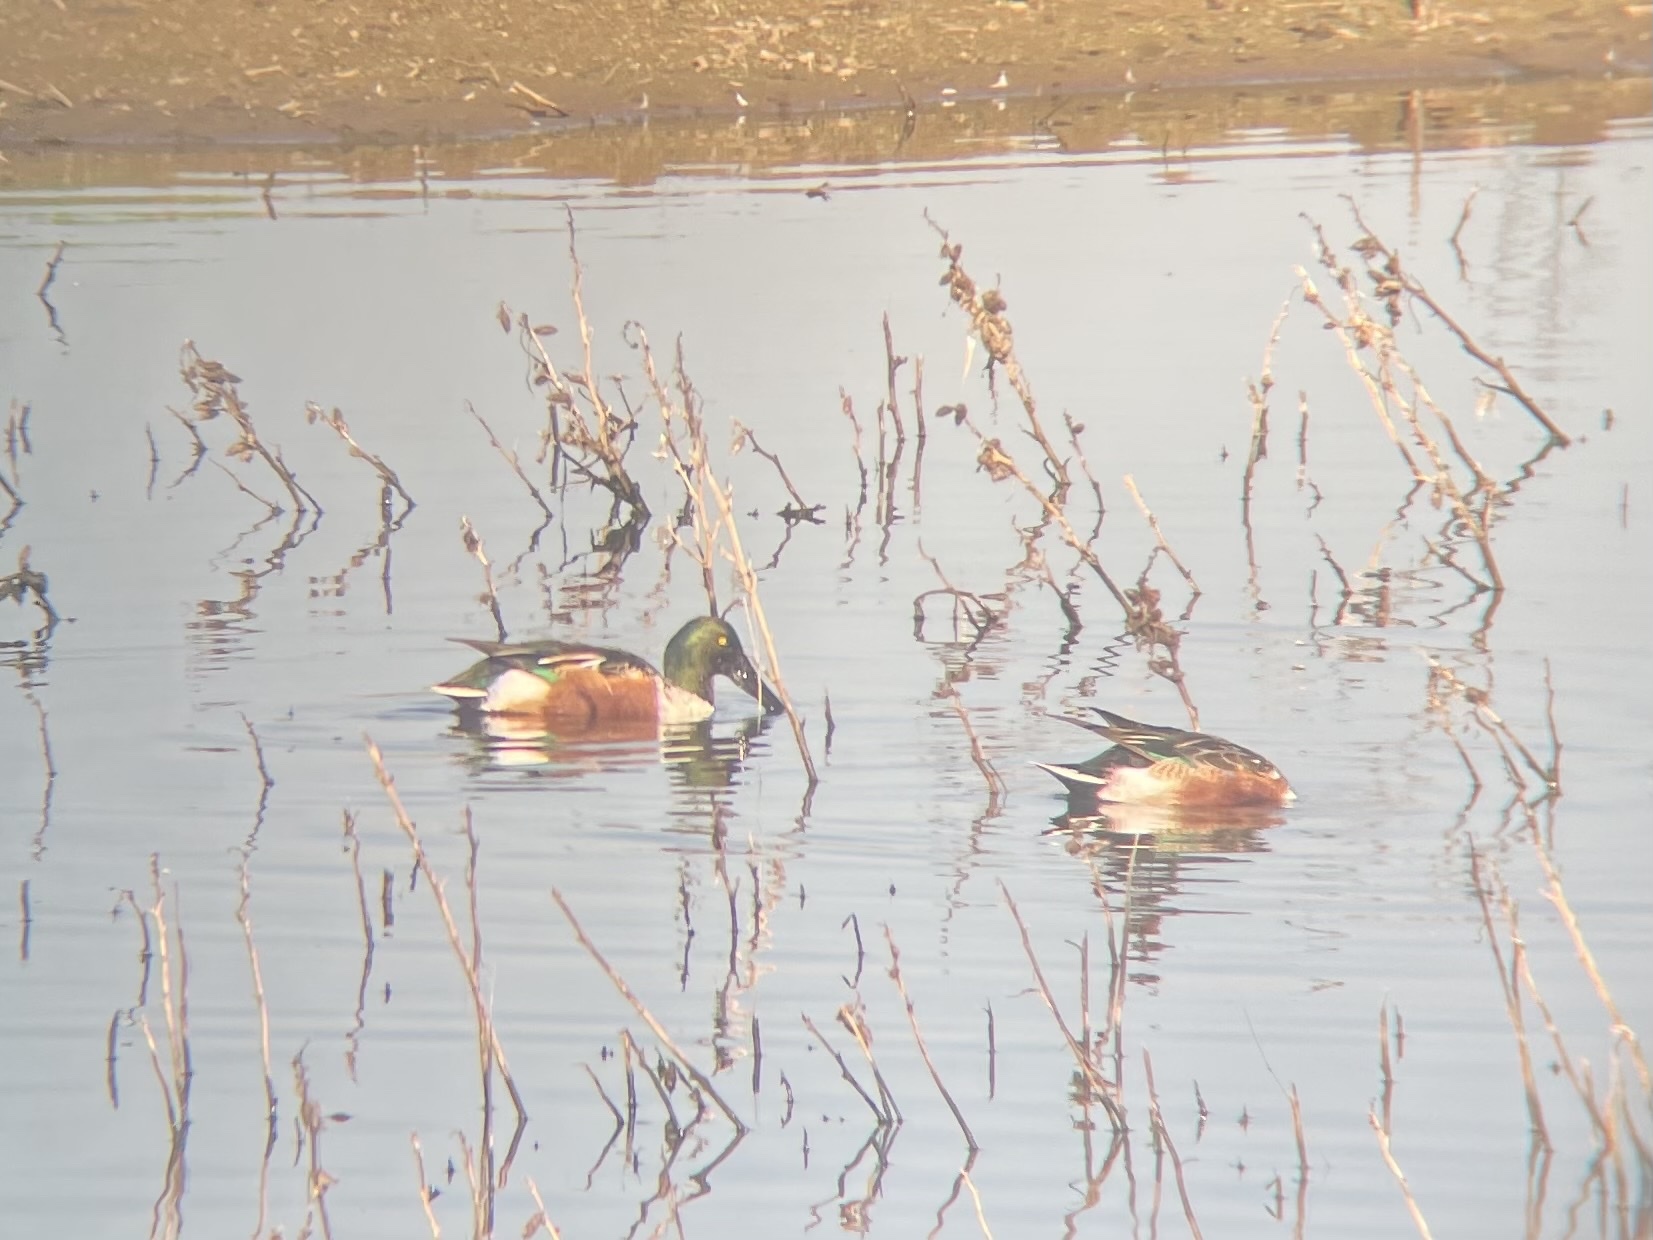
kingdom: Animalia
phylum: Chordata
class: Aves
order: Anseriformes
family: Anatidae
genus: Spatula
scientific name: Spatula clypeata
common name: Northern shoveler
